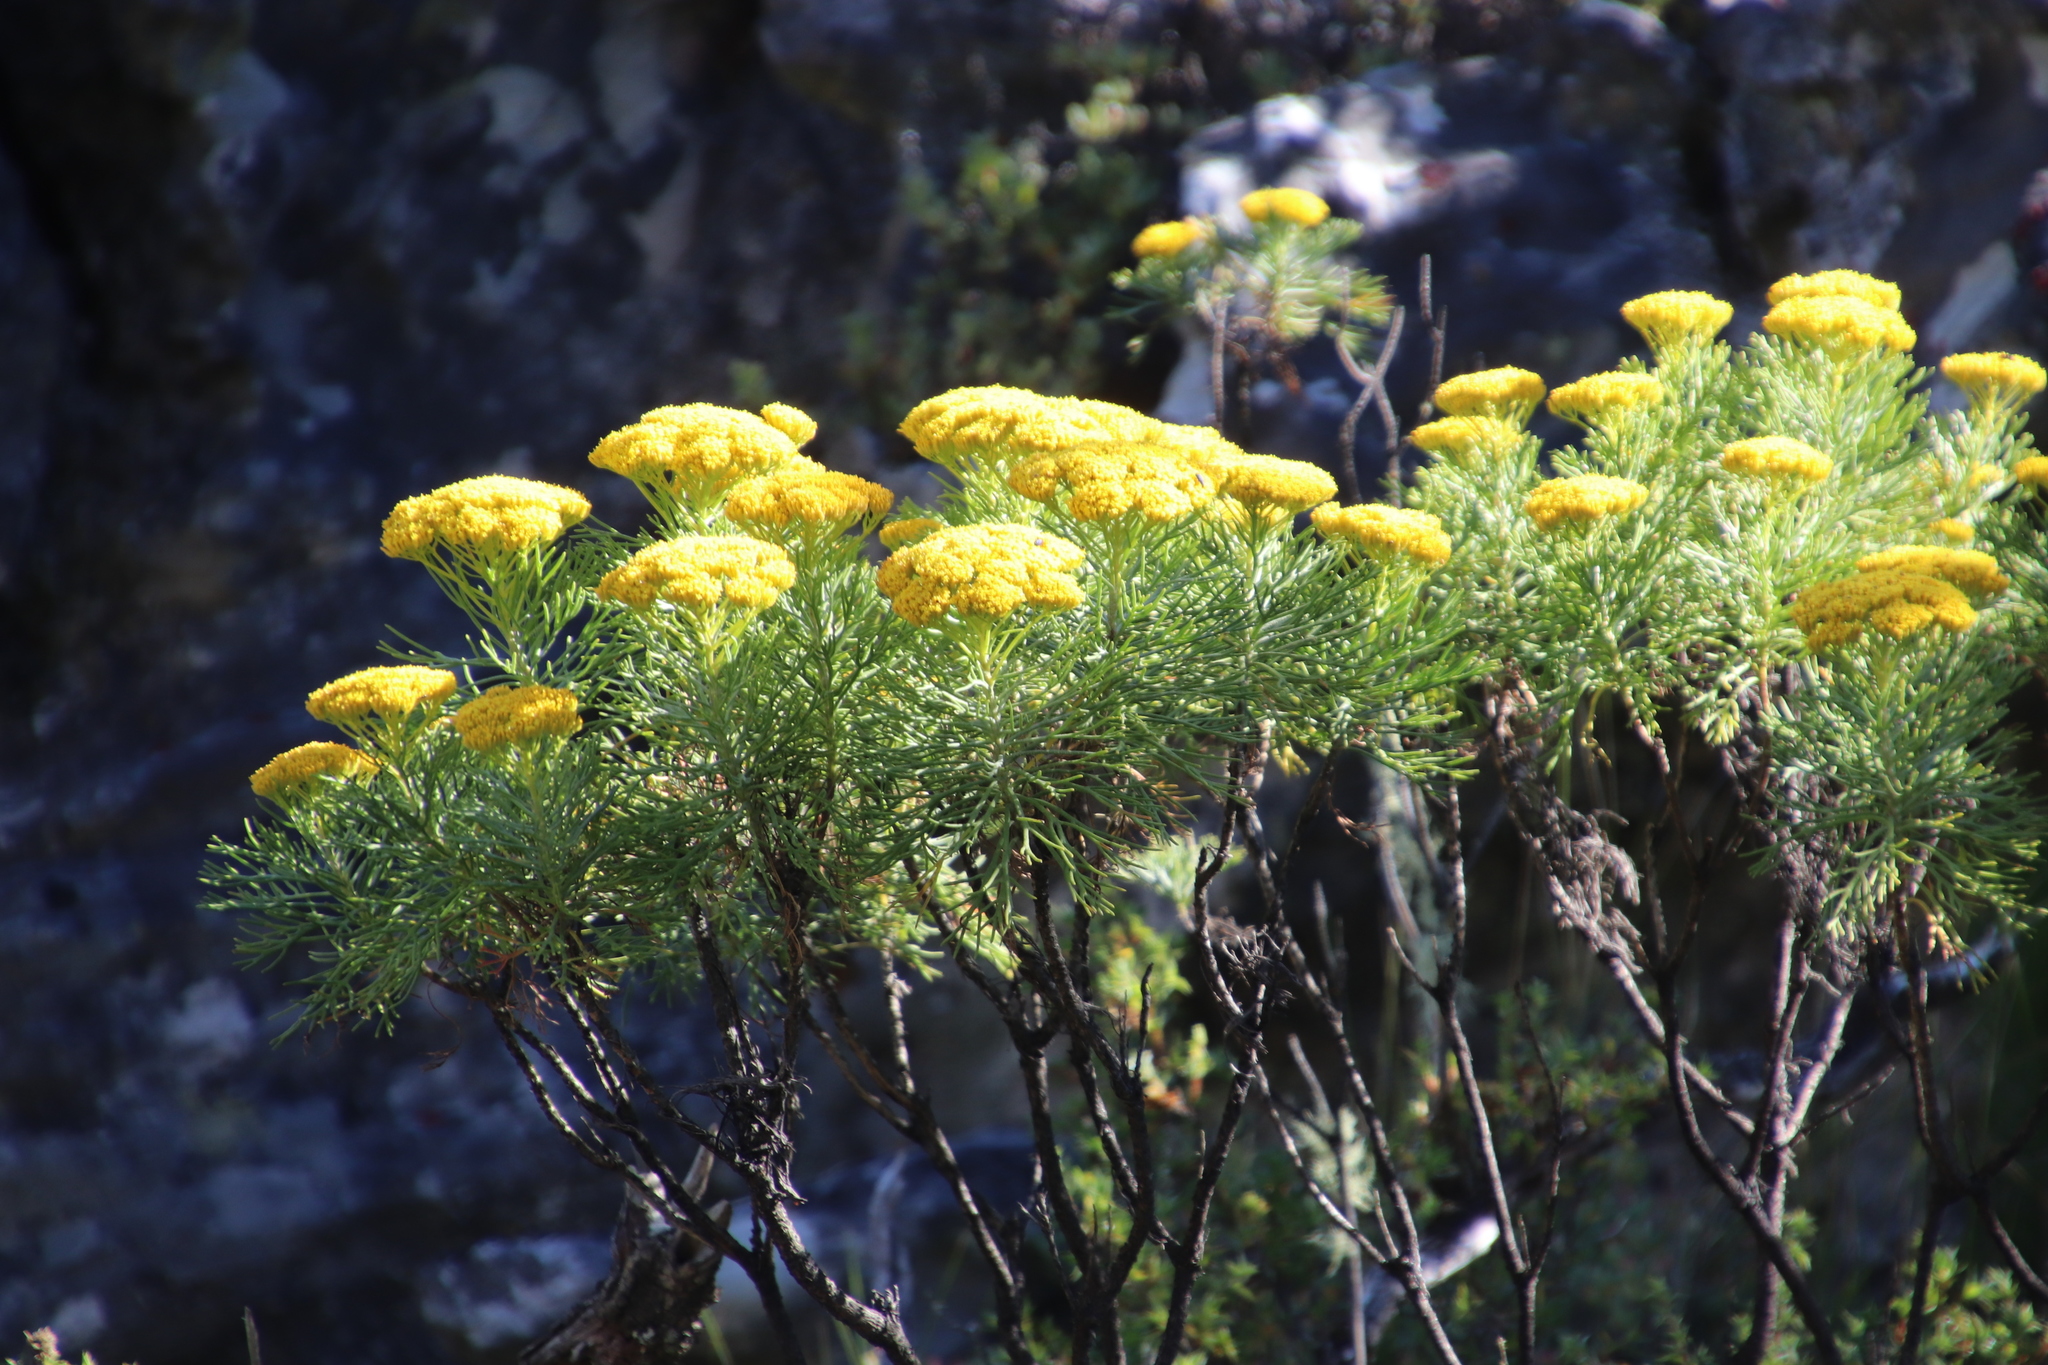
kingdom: Plantae
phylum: Tracheophyta
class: Magnoliopsida
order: Asterales
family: Asteraceae
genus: Hymenolepis
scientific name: Hymenolepis crithmifolia
